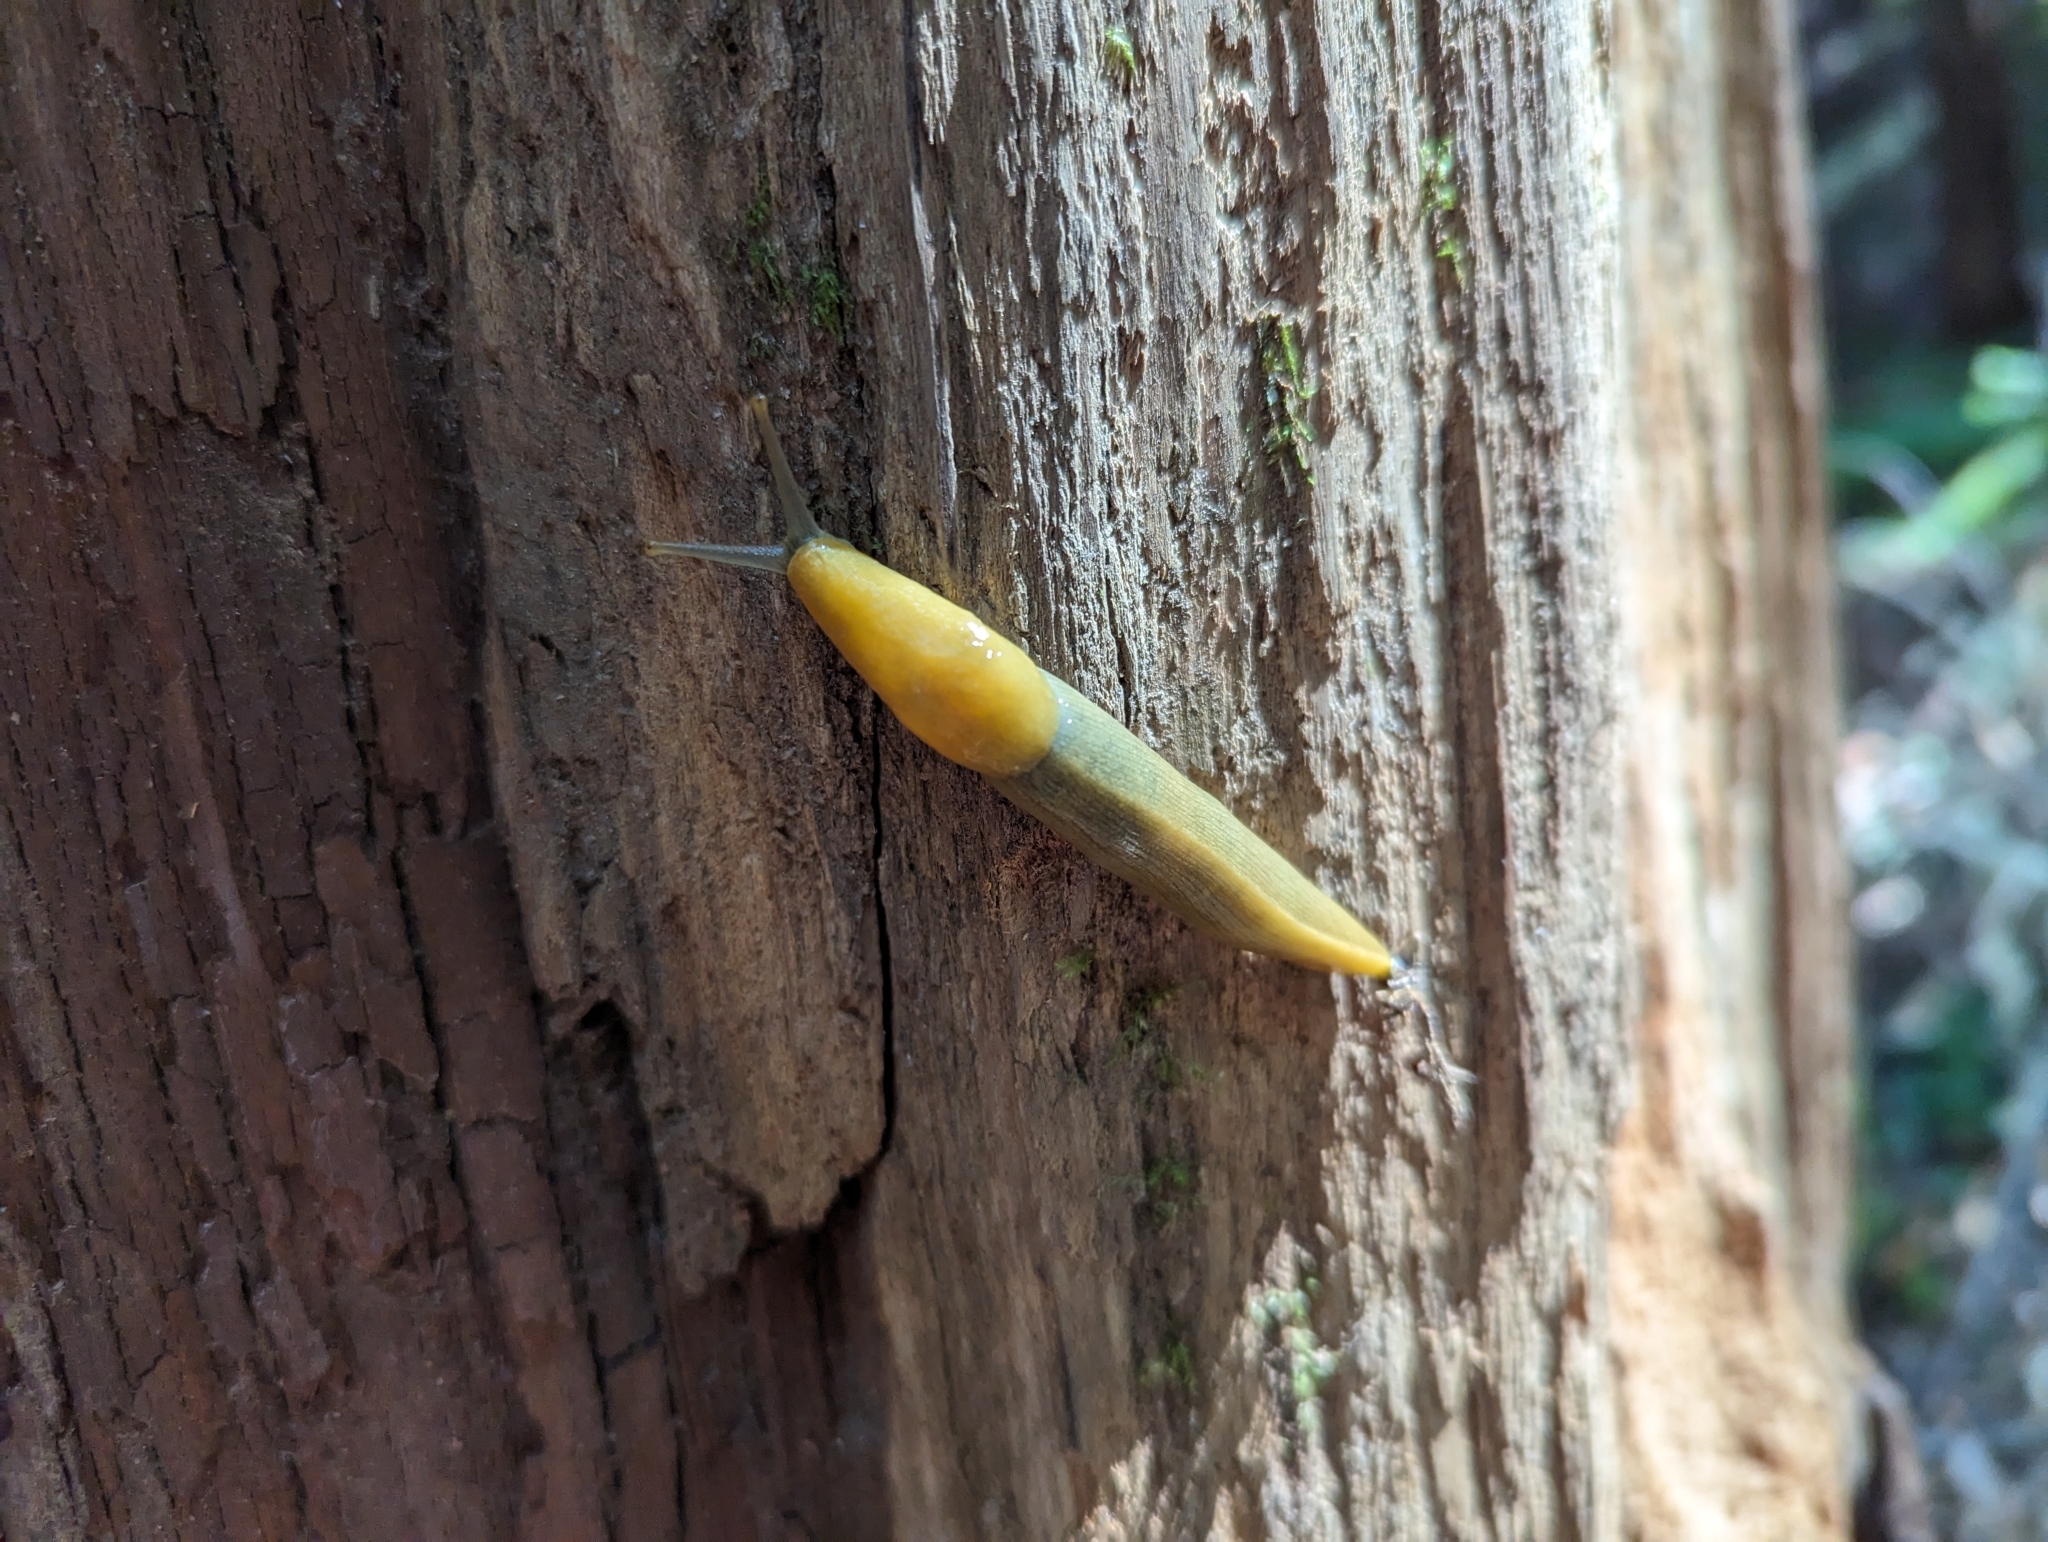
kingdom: Animalia
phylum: Mollusca
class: Gastropoda
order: Stylommatophora
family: Ariolimacidae
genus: Ariolimax
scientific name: Ariolimax dolichophallus
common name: Slender banana slug
